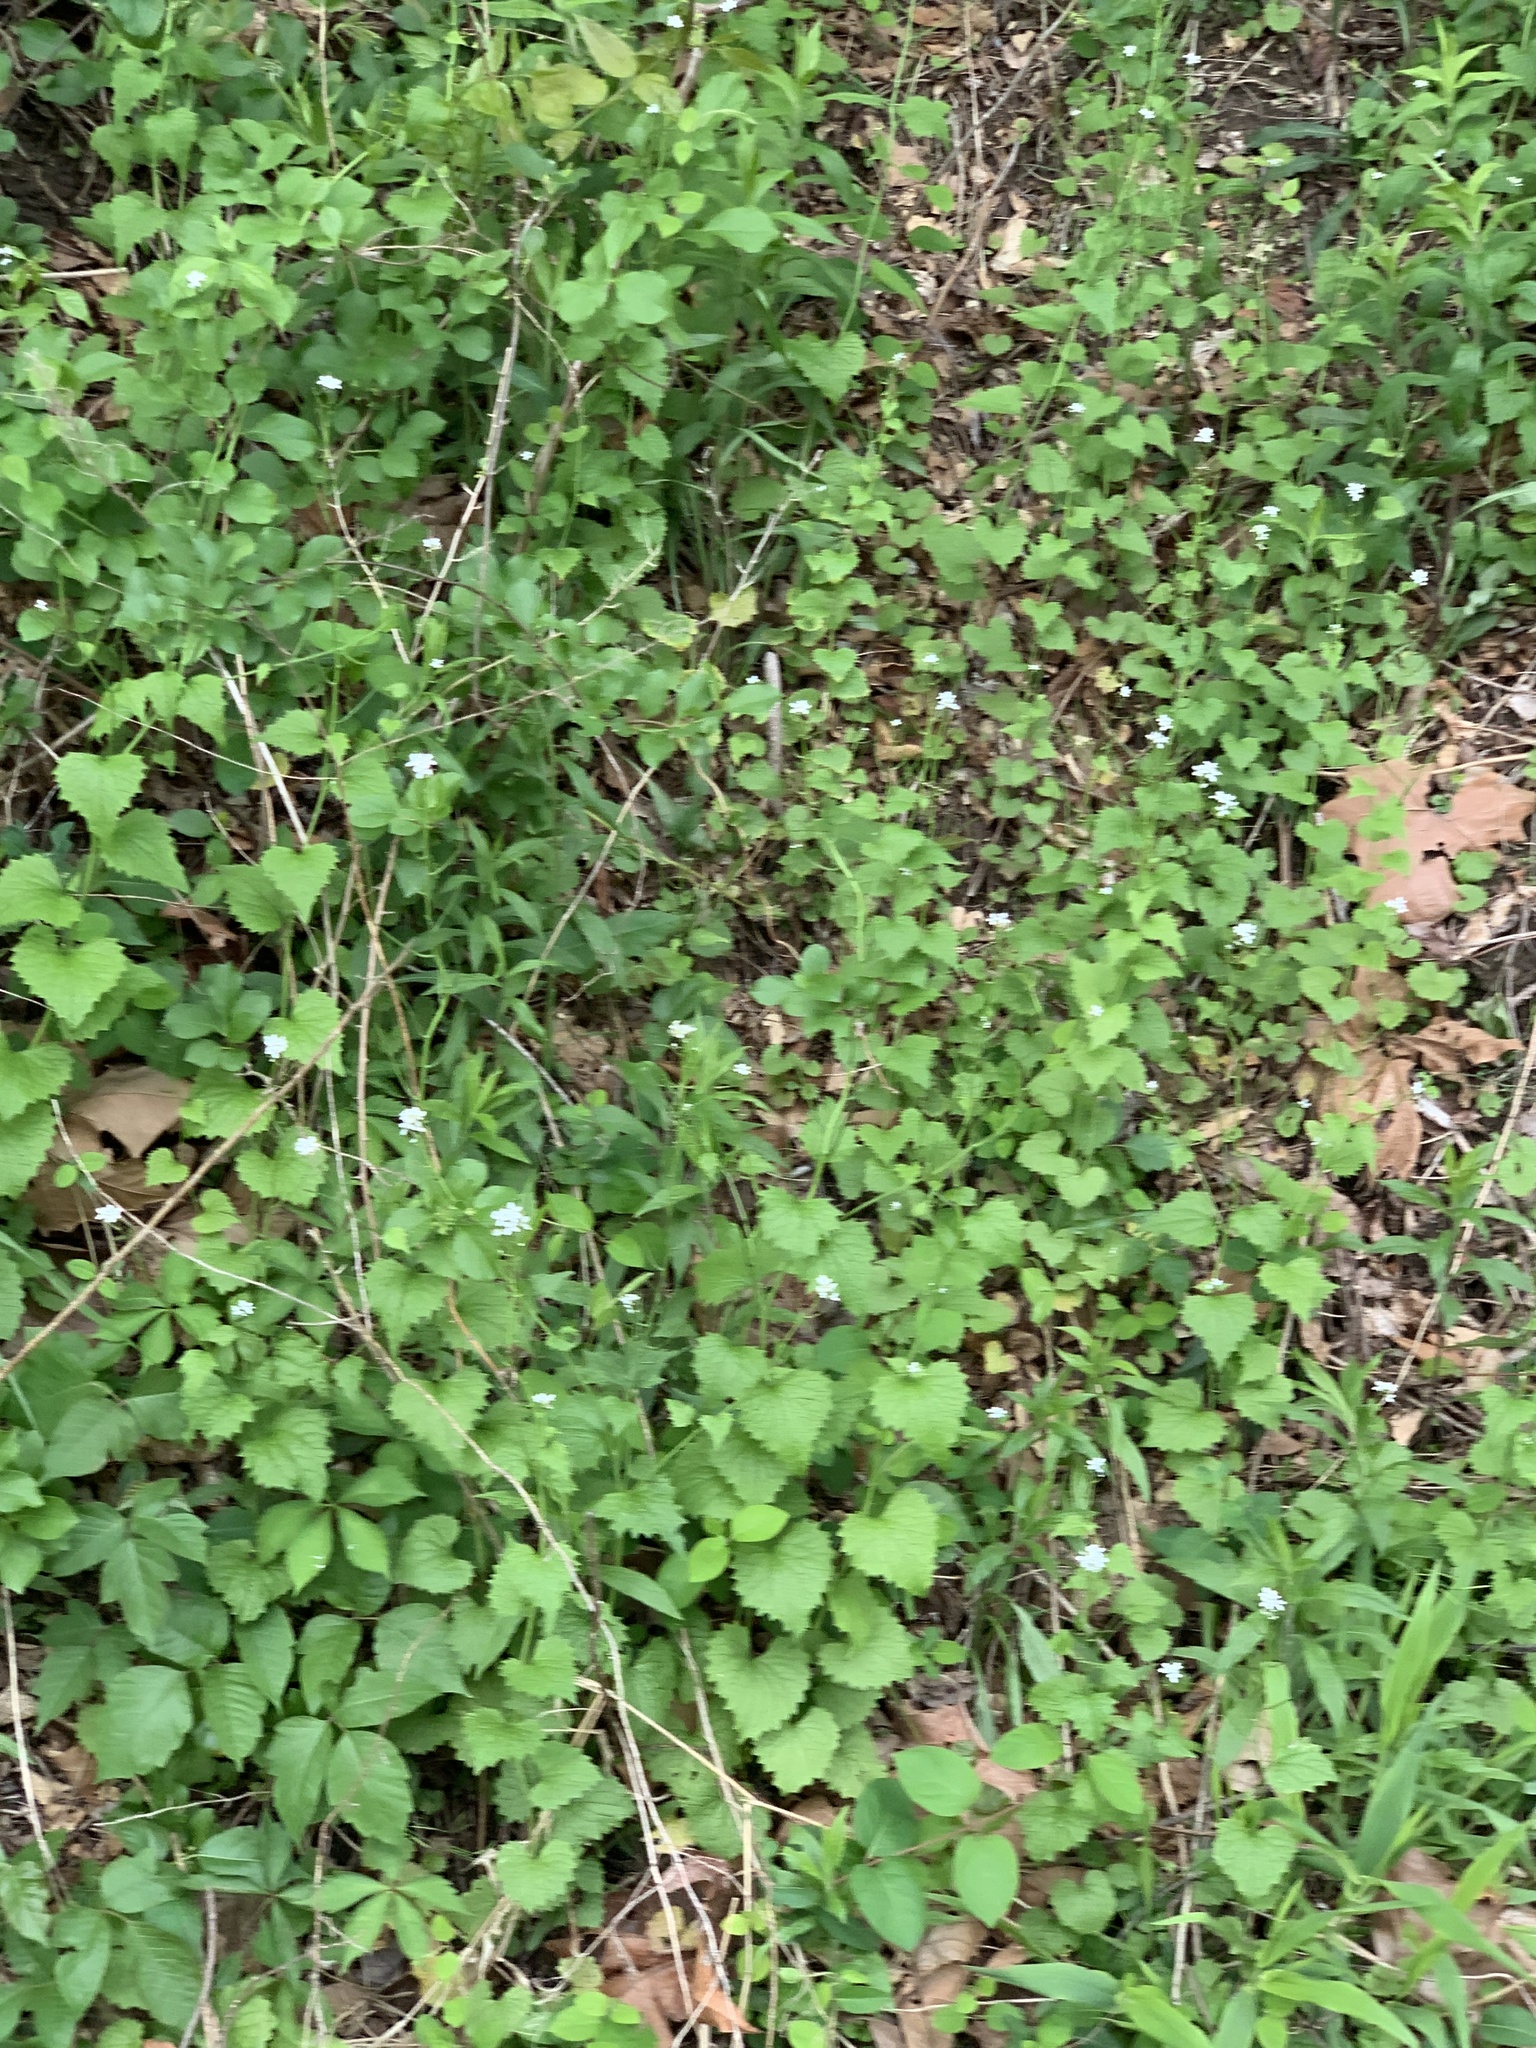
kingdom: Plantae
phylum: Tracheophyta
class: Magnoliopsida
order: Brassicales
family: Brassicaceae
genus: Alliaria
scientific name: Alliaria petiolata
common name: Garlic mustard
